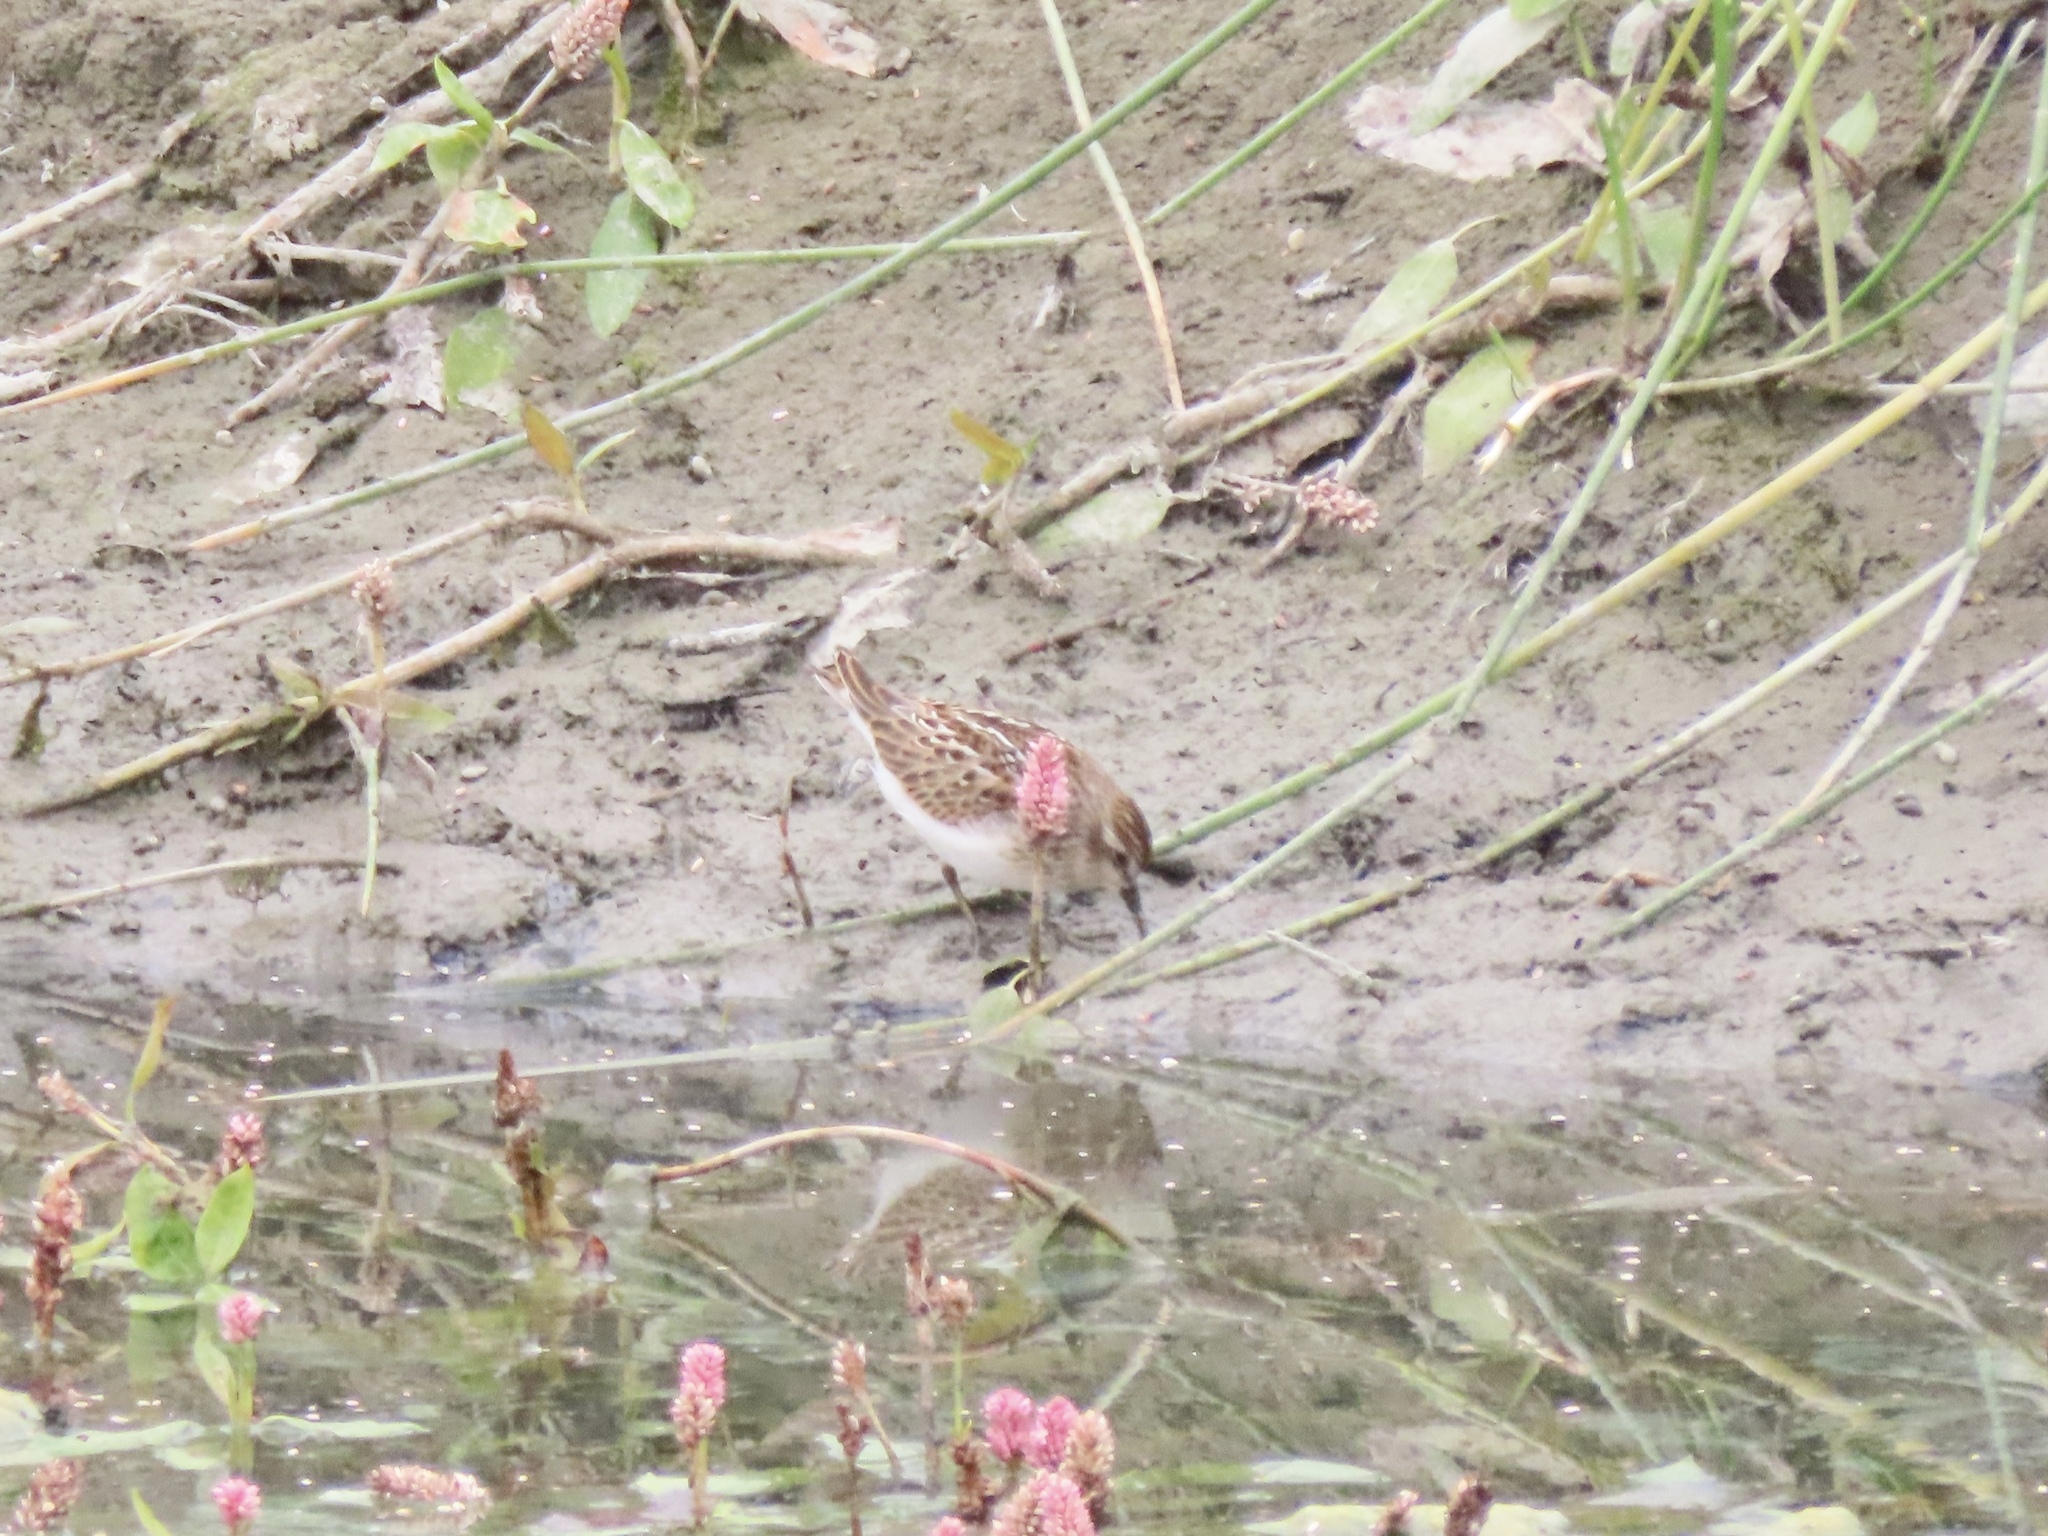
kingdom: Animalia
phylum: Chordata
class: Aves
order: Charadriiformes
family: Scolopacidae
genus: Calidris
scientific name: Calidris minutilla
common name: Least sandpiper
